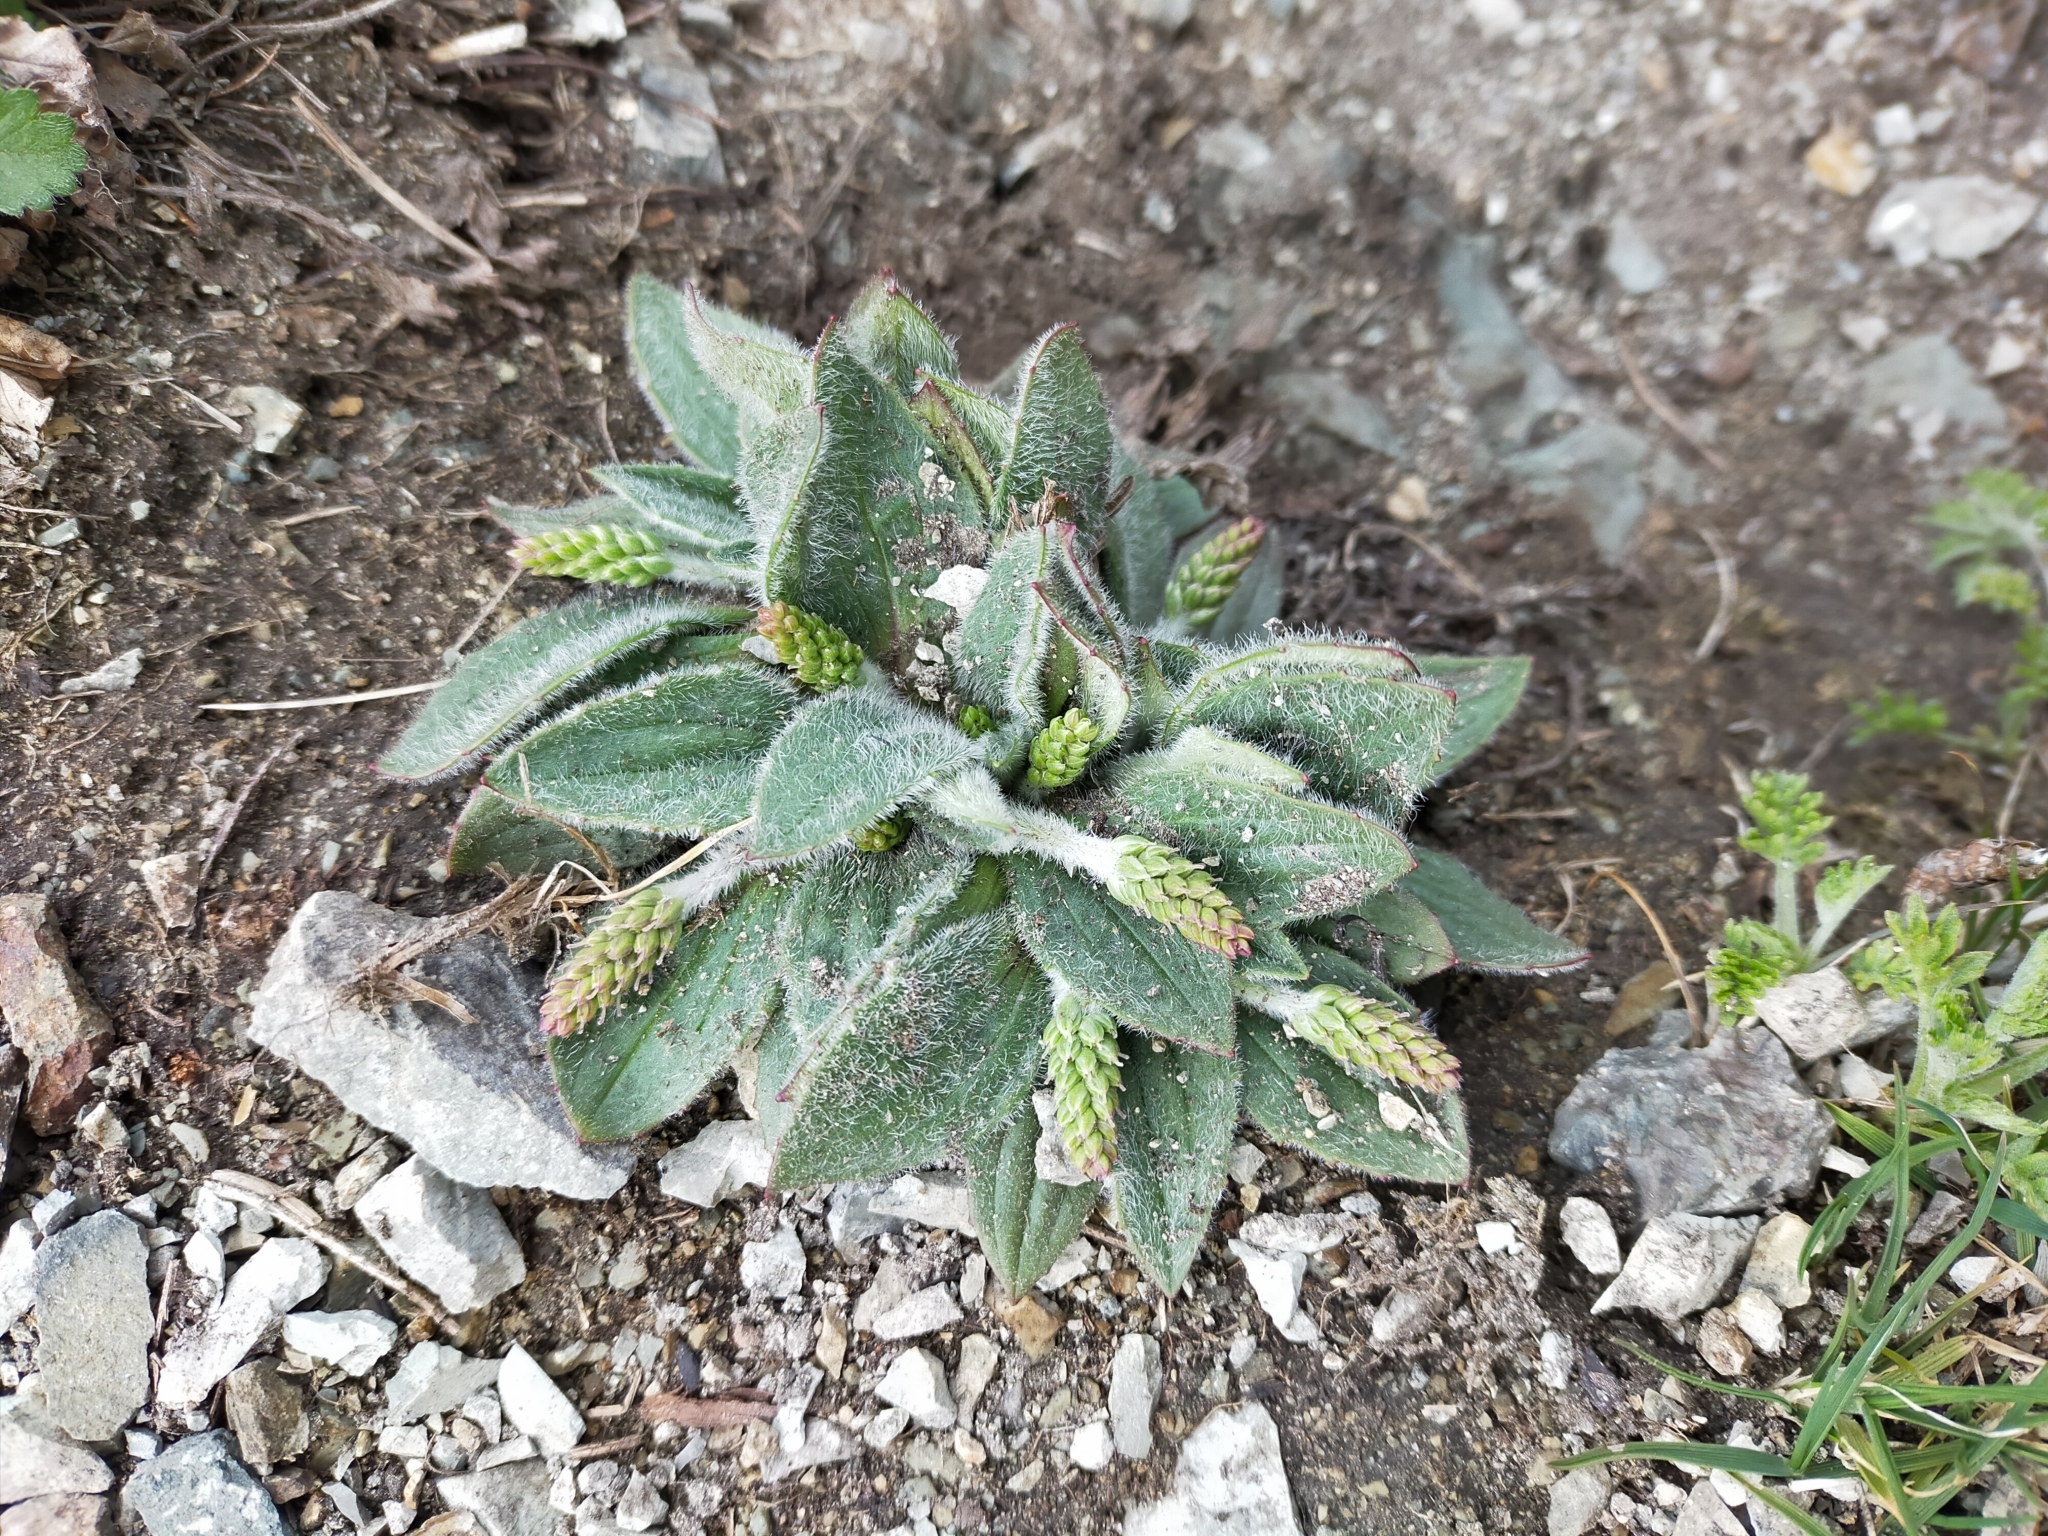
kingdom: Plantae
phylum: Tracheophyta
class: Magnoliopsida
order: Lamiales
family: Plantaginaceae
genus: Plantago
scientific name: Plantago camtschatica
